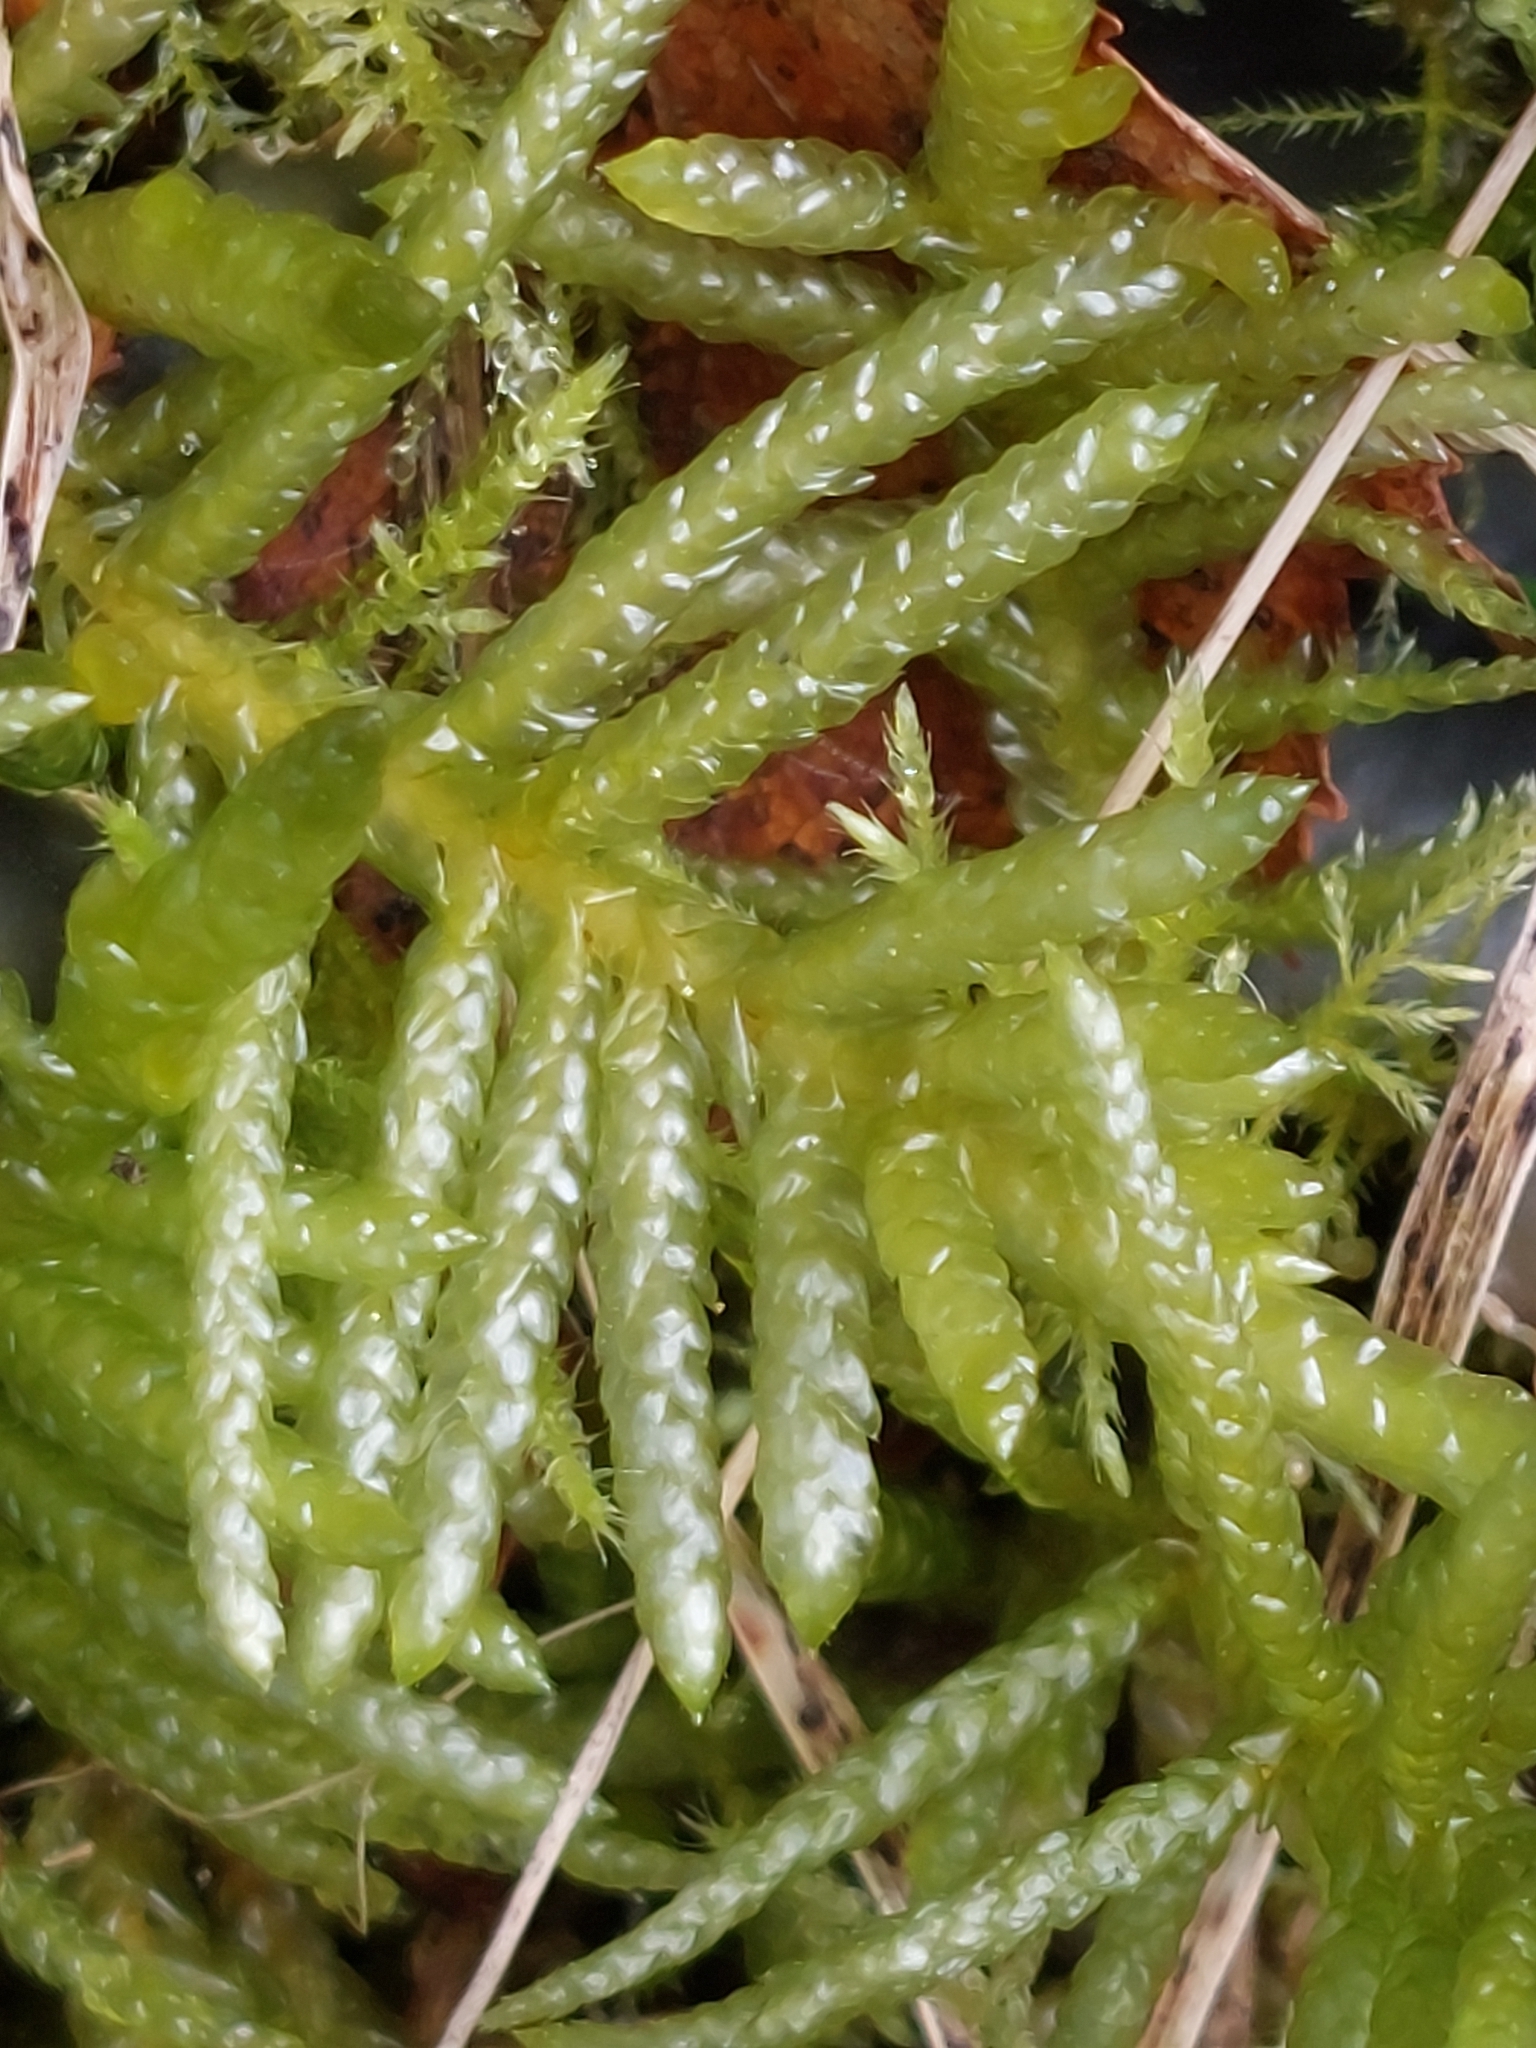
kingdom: Plantae
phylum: Bryophyta
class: Bryopsida
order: Hypnales
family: Brachytheciaceae
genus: Pseudoscleropodium
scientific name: Pseudoscleropodium purum
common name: Neat feather-moss
